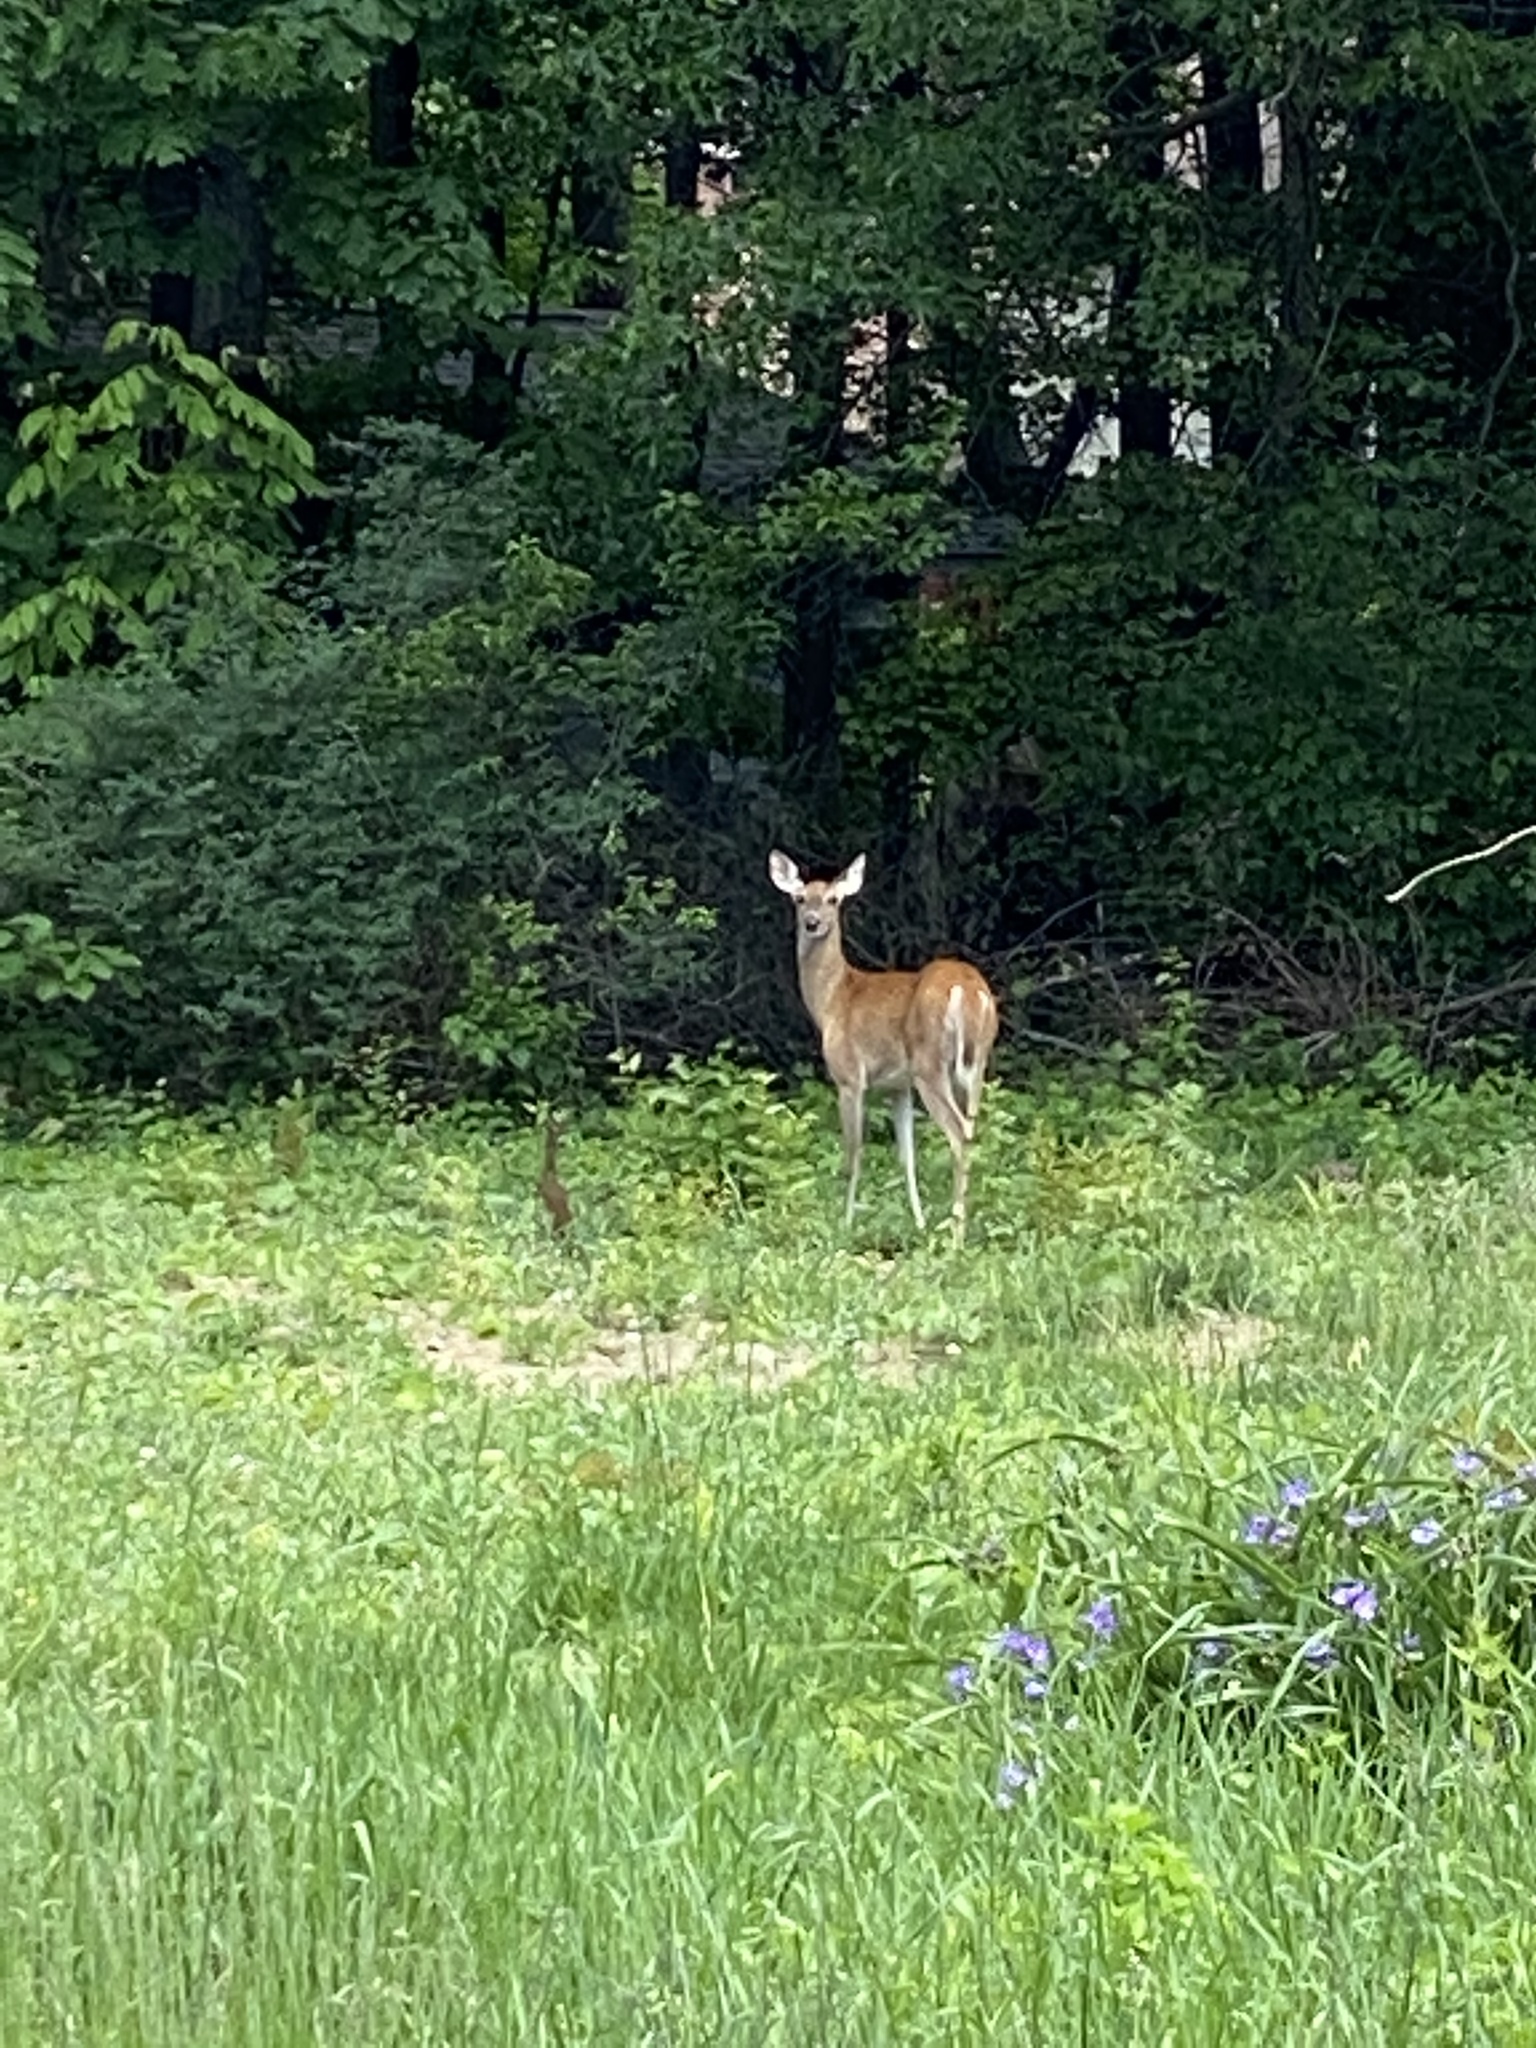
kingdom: Animalia
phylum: Chordata
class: Mammalia
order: Artiodactyla
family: Cervidae
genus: Odocoileus
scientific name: Odocoileus virginianus
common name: White-tailed deer
